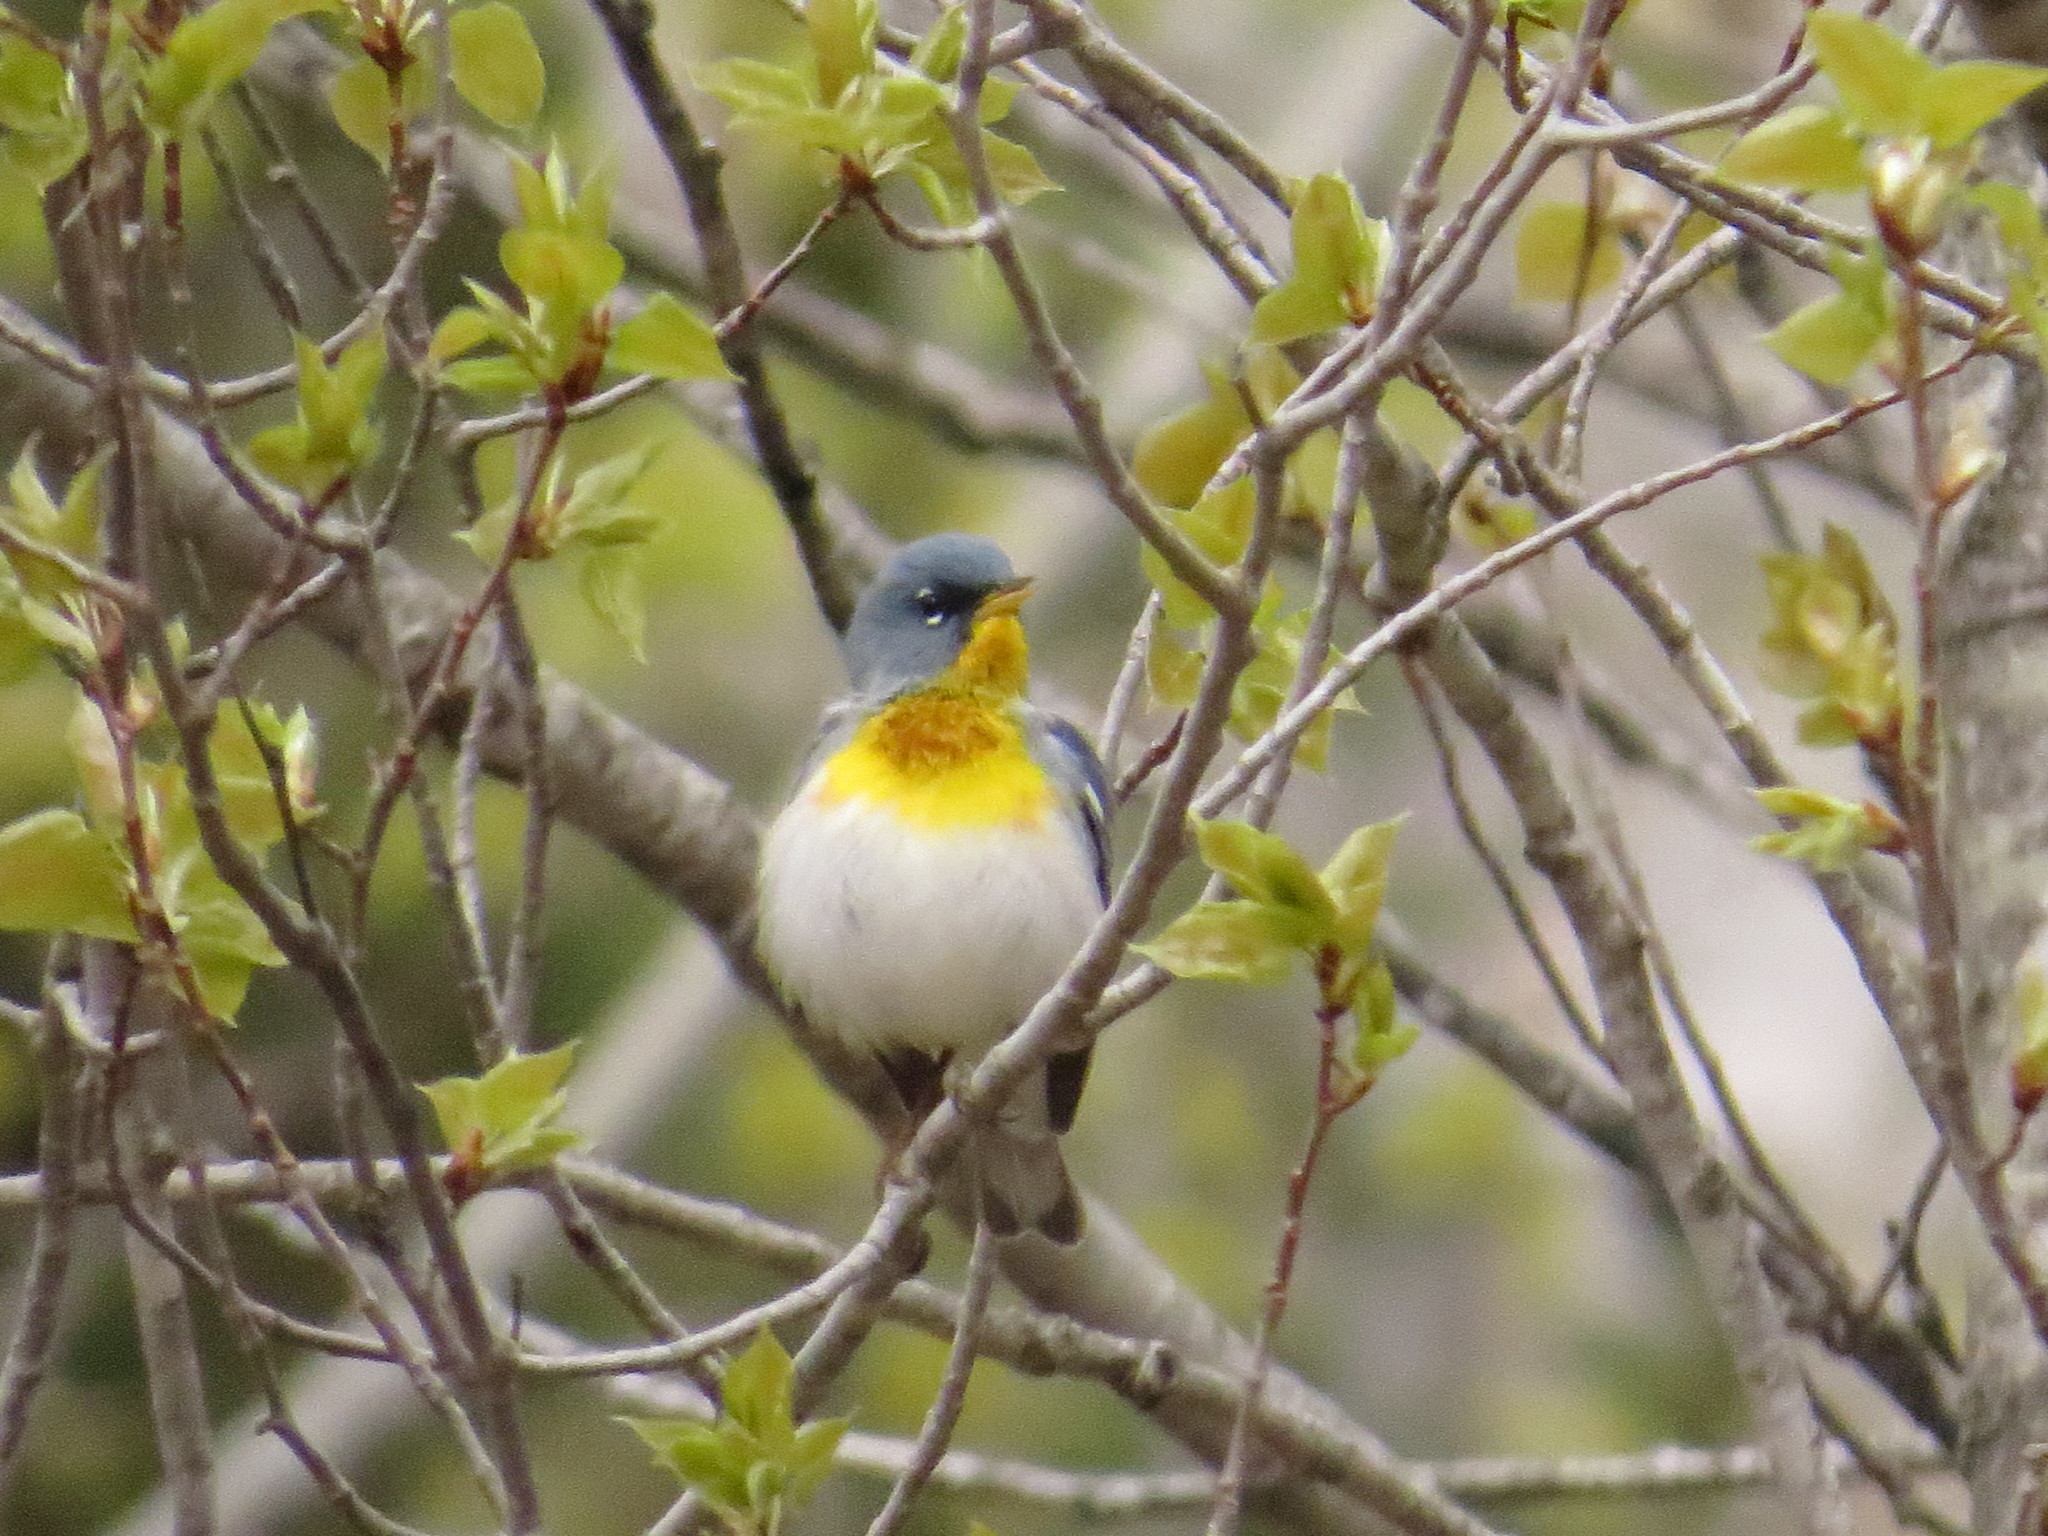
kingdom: Animalia
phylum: Chordata
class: Aves
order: Passeriformes
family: Parulidae
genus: Setophaga
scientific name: Setophaga americana
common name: Northern parula
